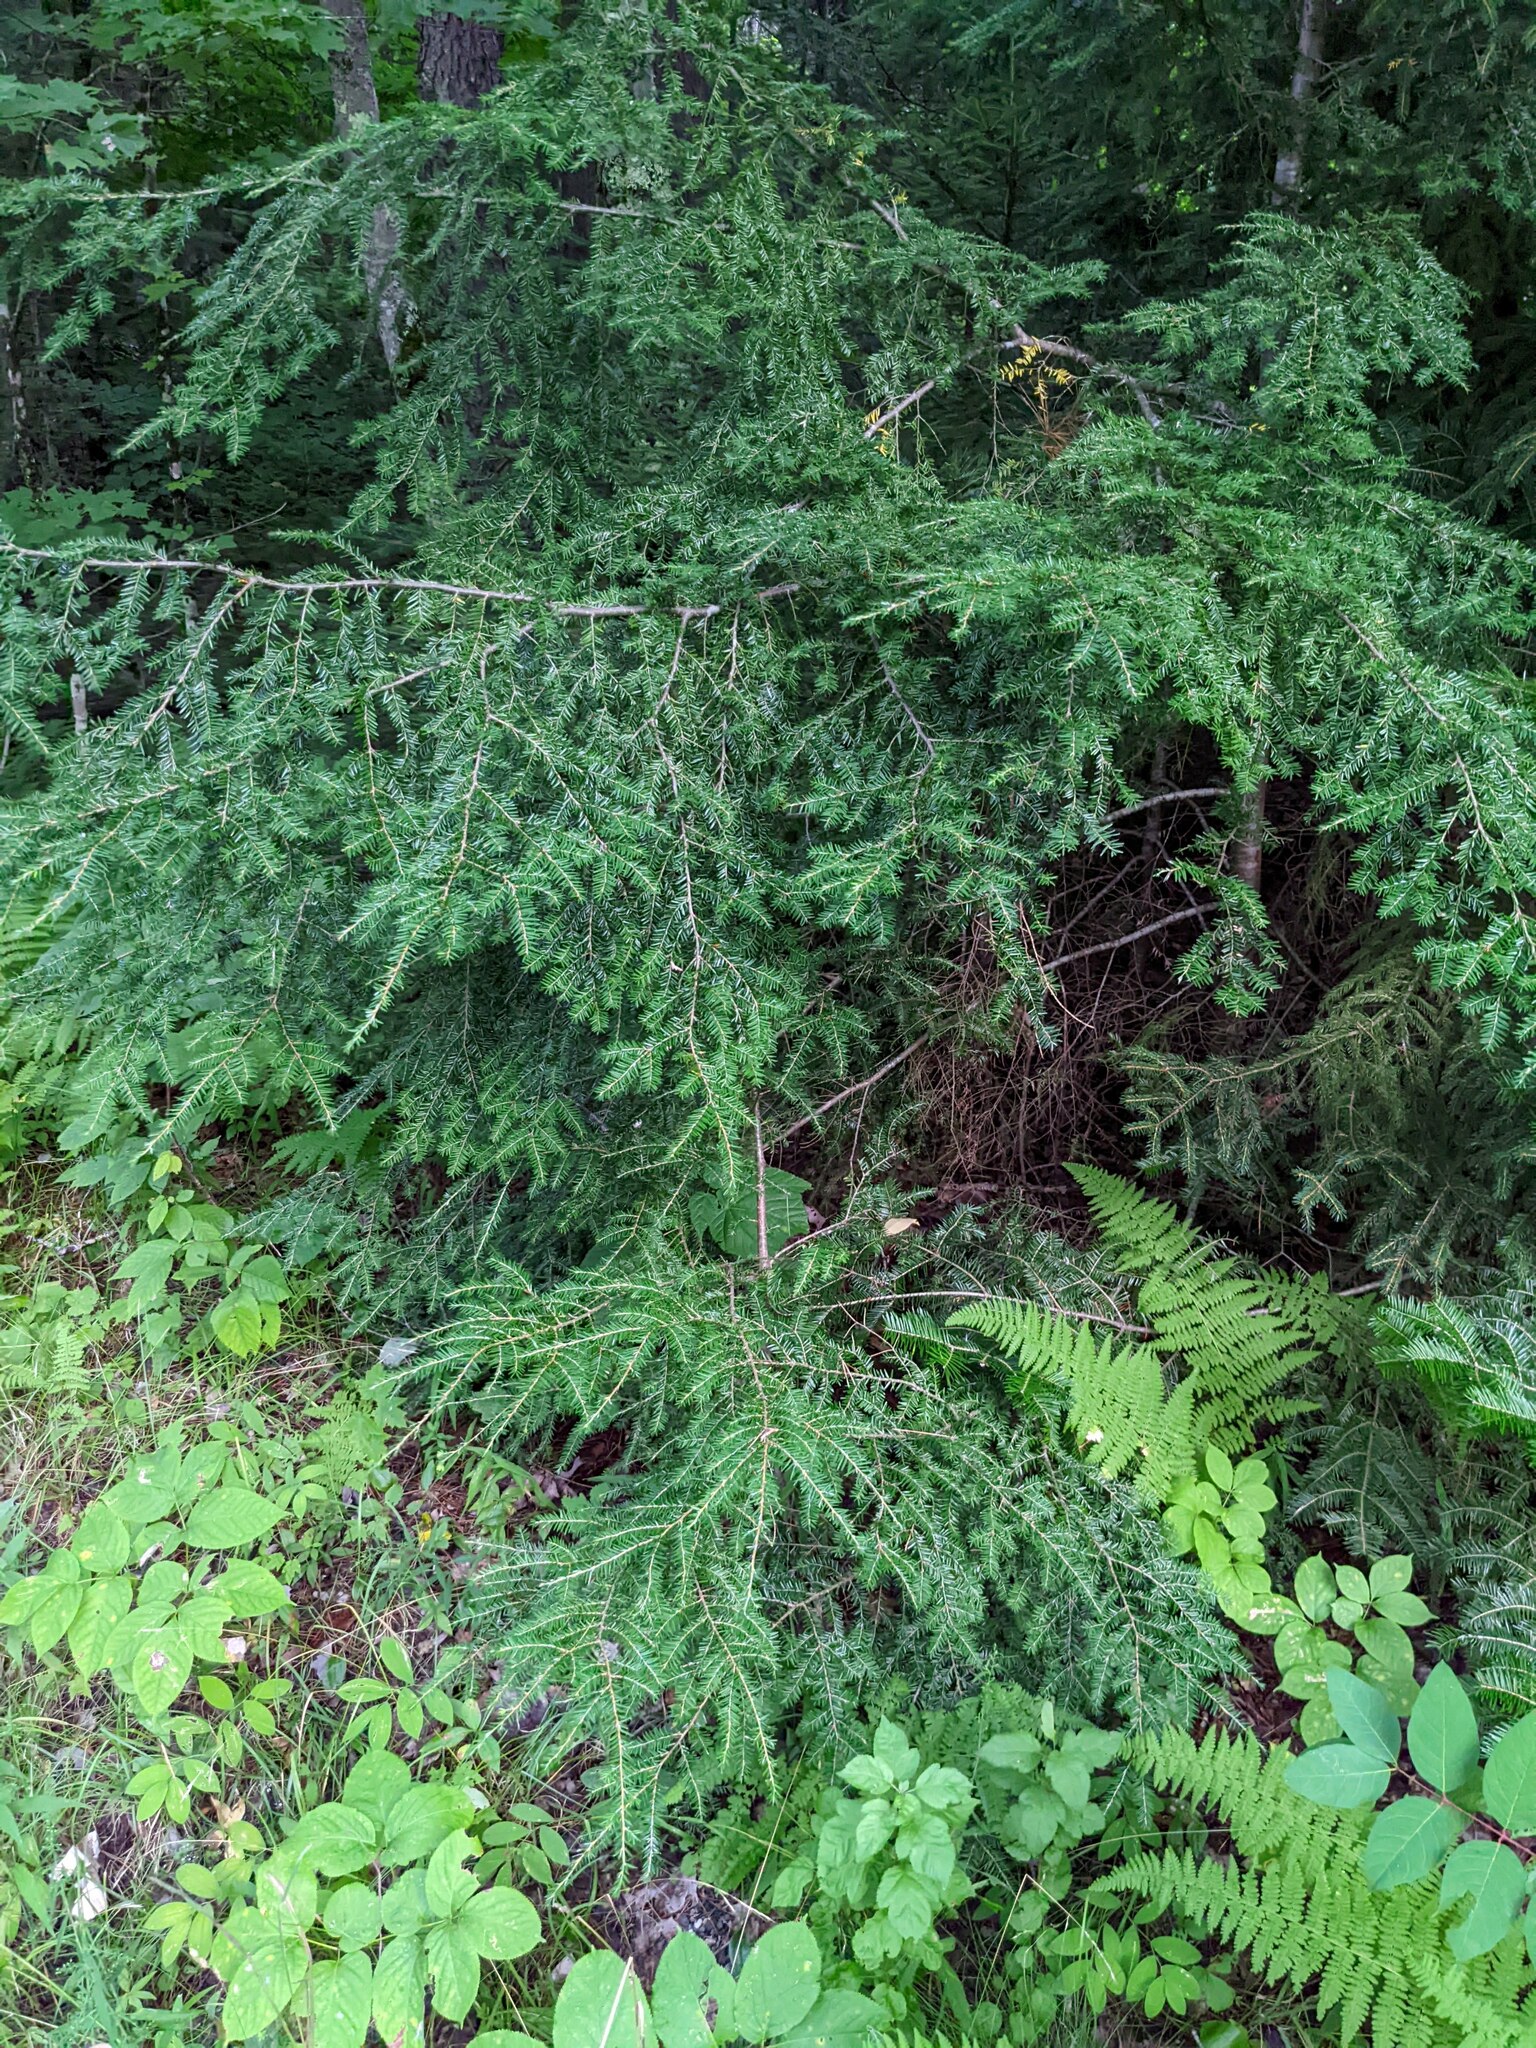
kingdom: Plantae
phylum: Tracheophyta
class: Pinopsida
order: Pinales
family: Pinaceae
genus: Tsuga
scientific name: Tsuga canadensis
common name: Eastern hemlock
